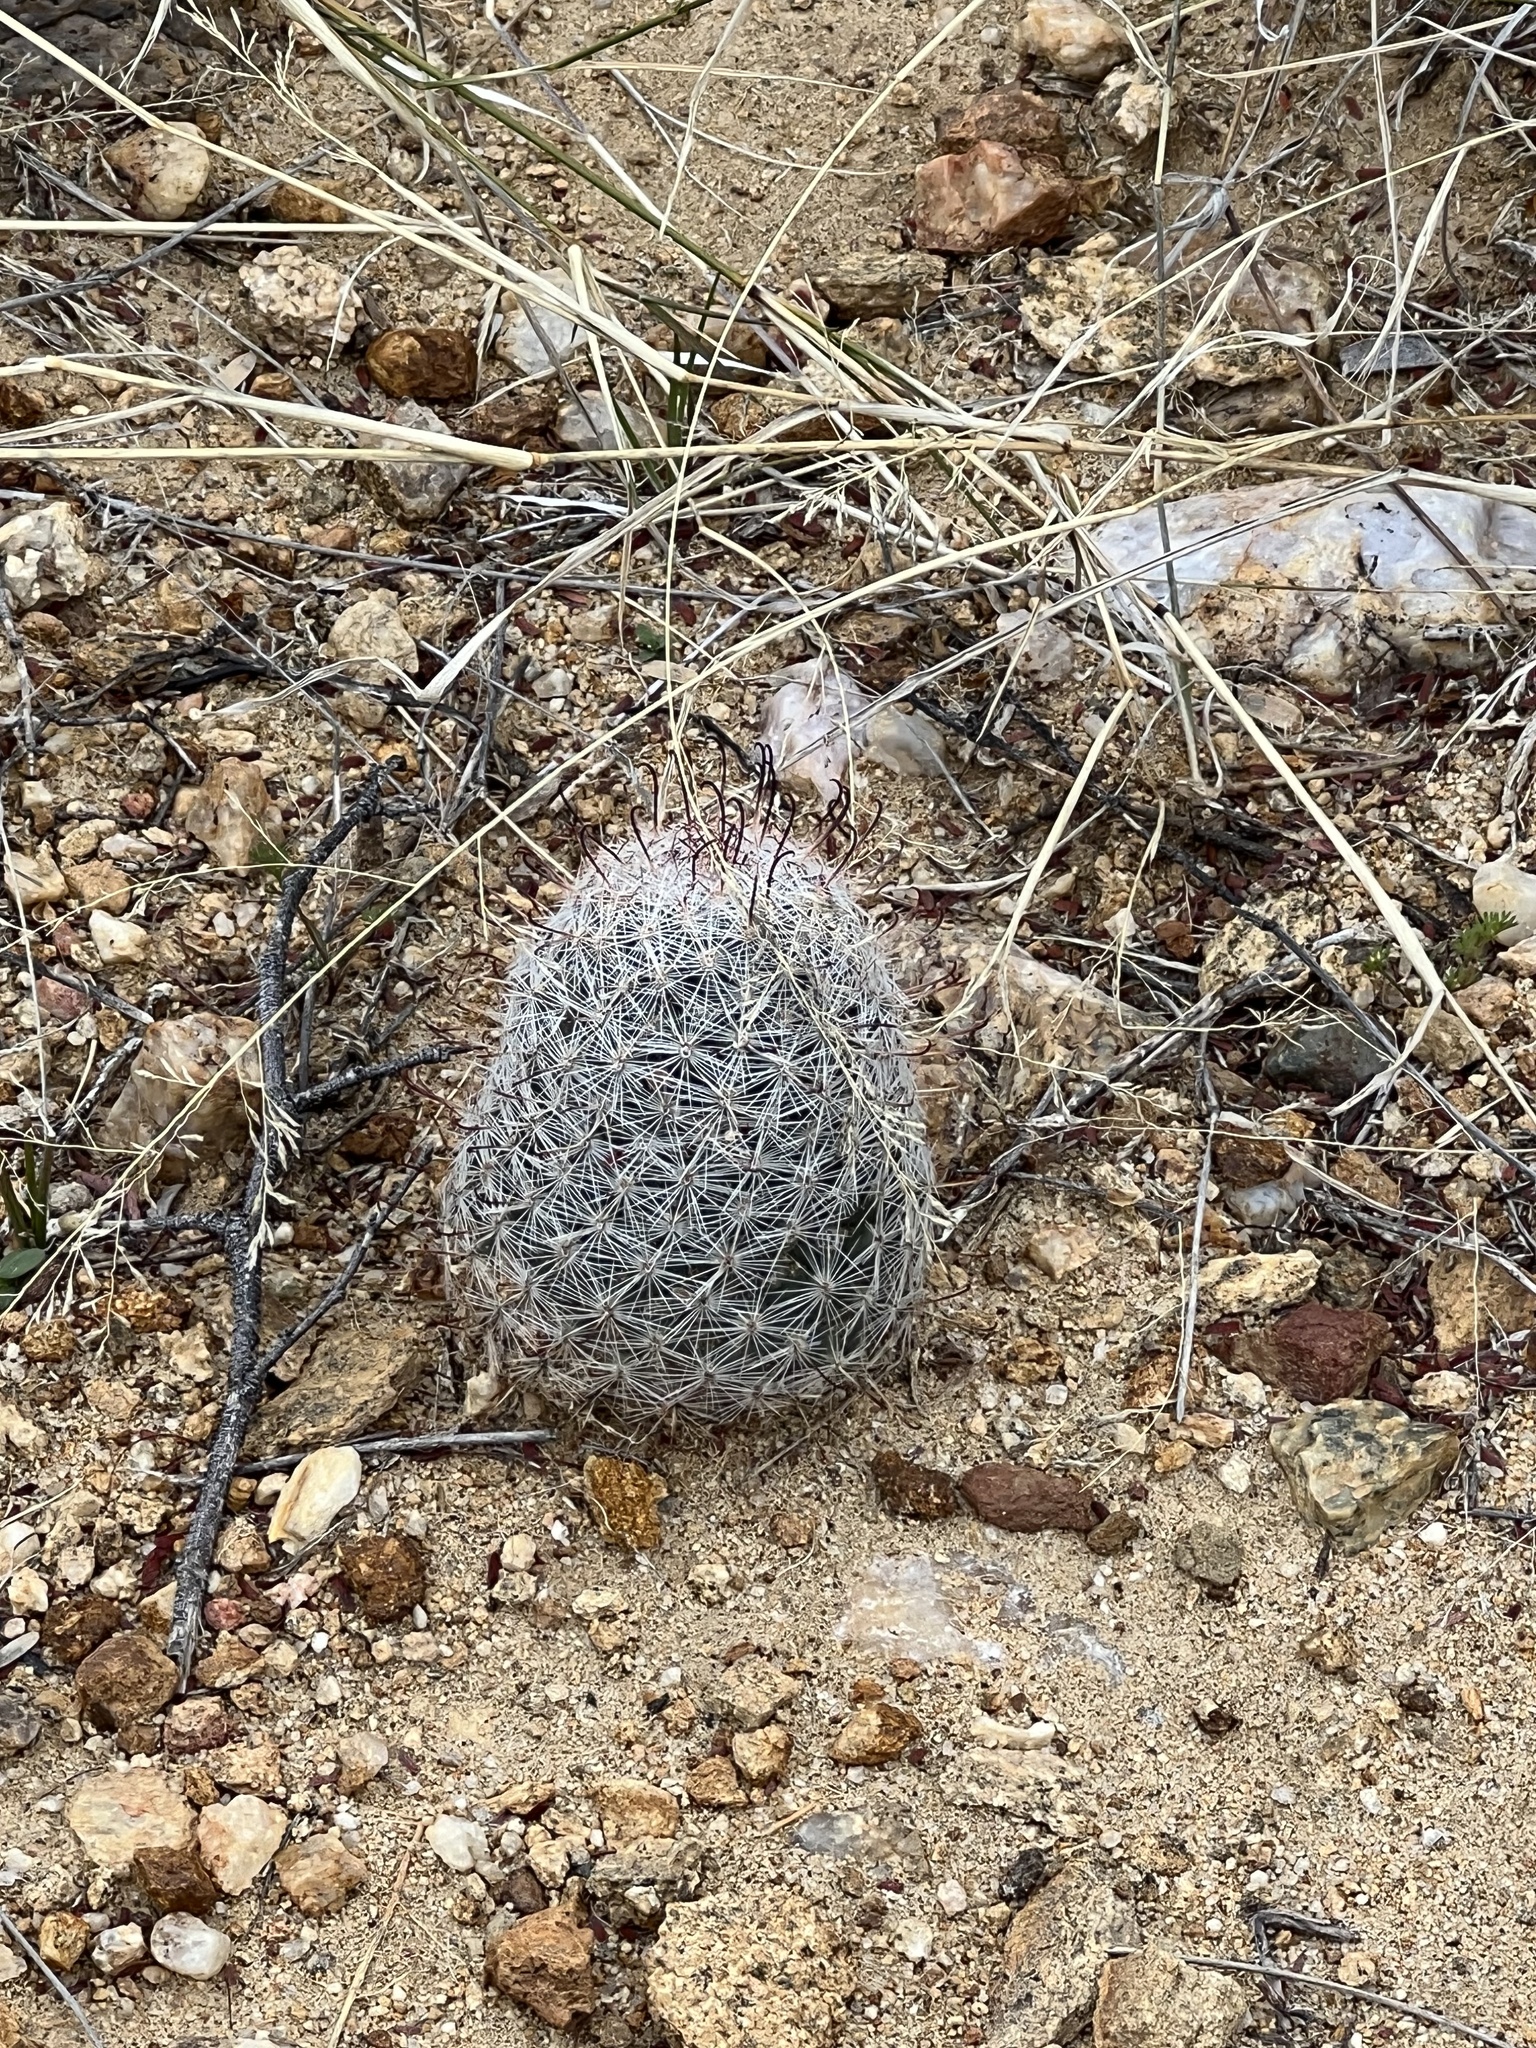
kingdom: Plantae
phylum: Tracheophyta
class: Magnoliopsida
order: Caryophyllales
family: Cactaceae
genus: Cochemiea
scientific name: Cochemiea grahamii
